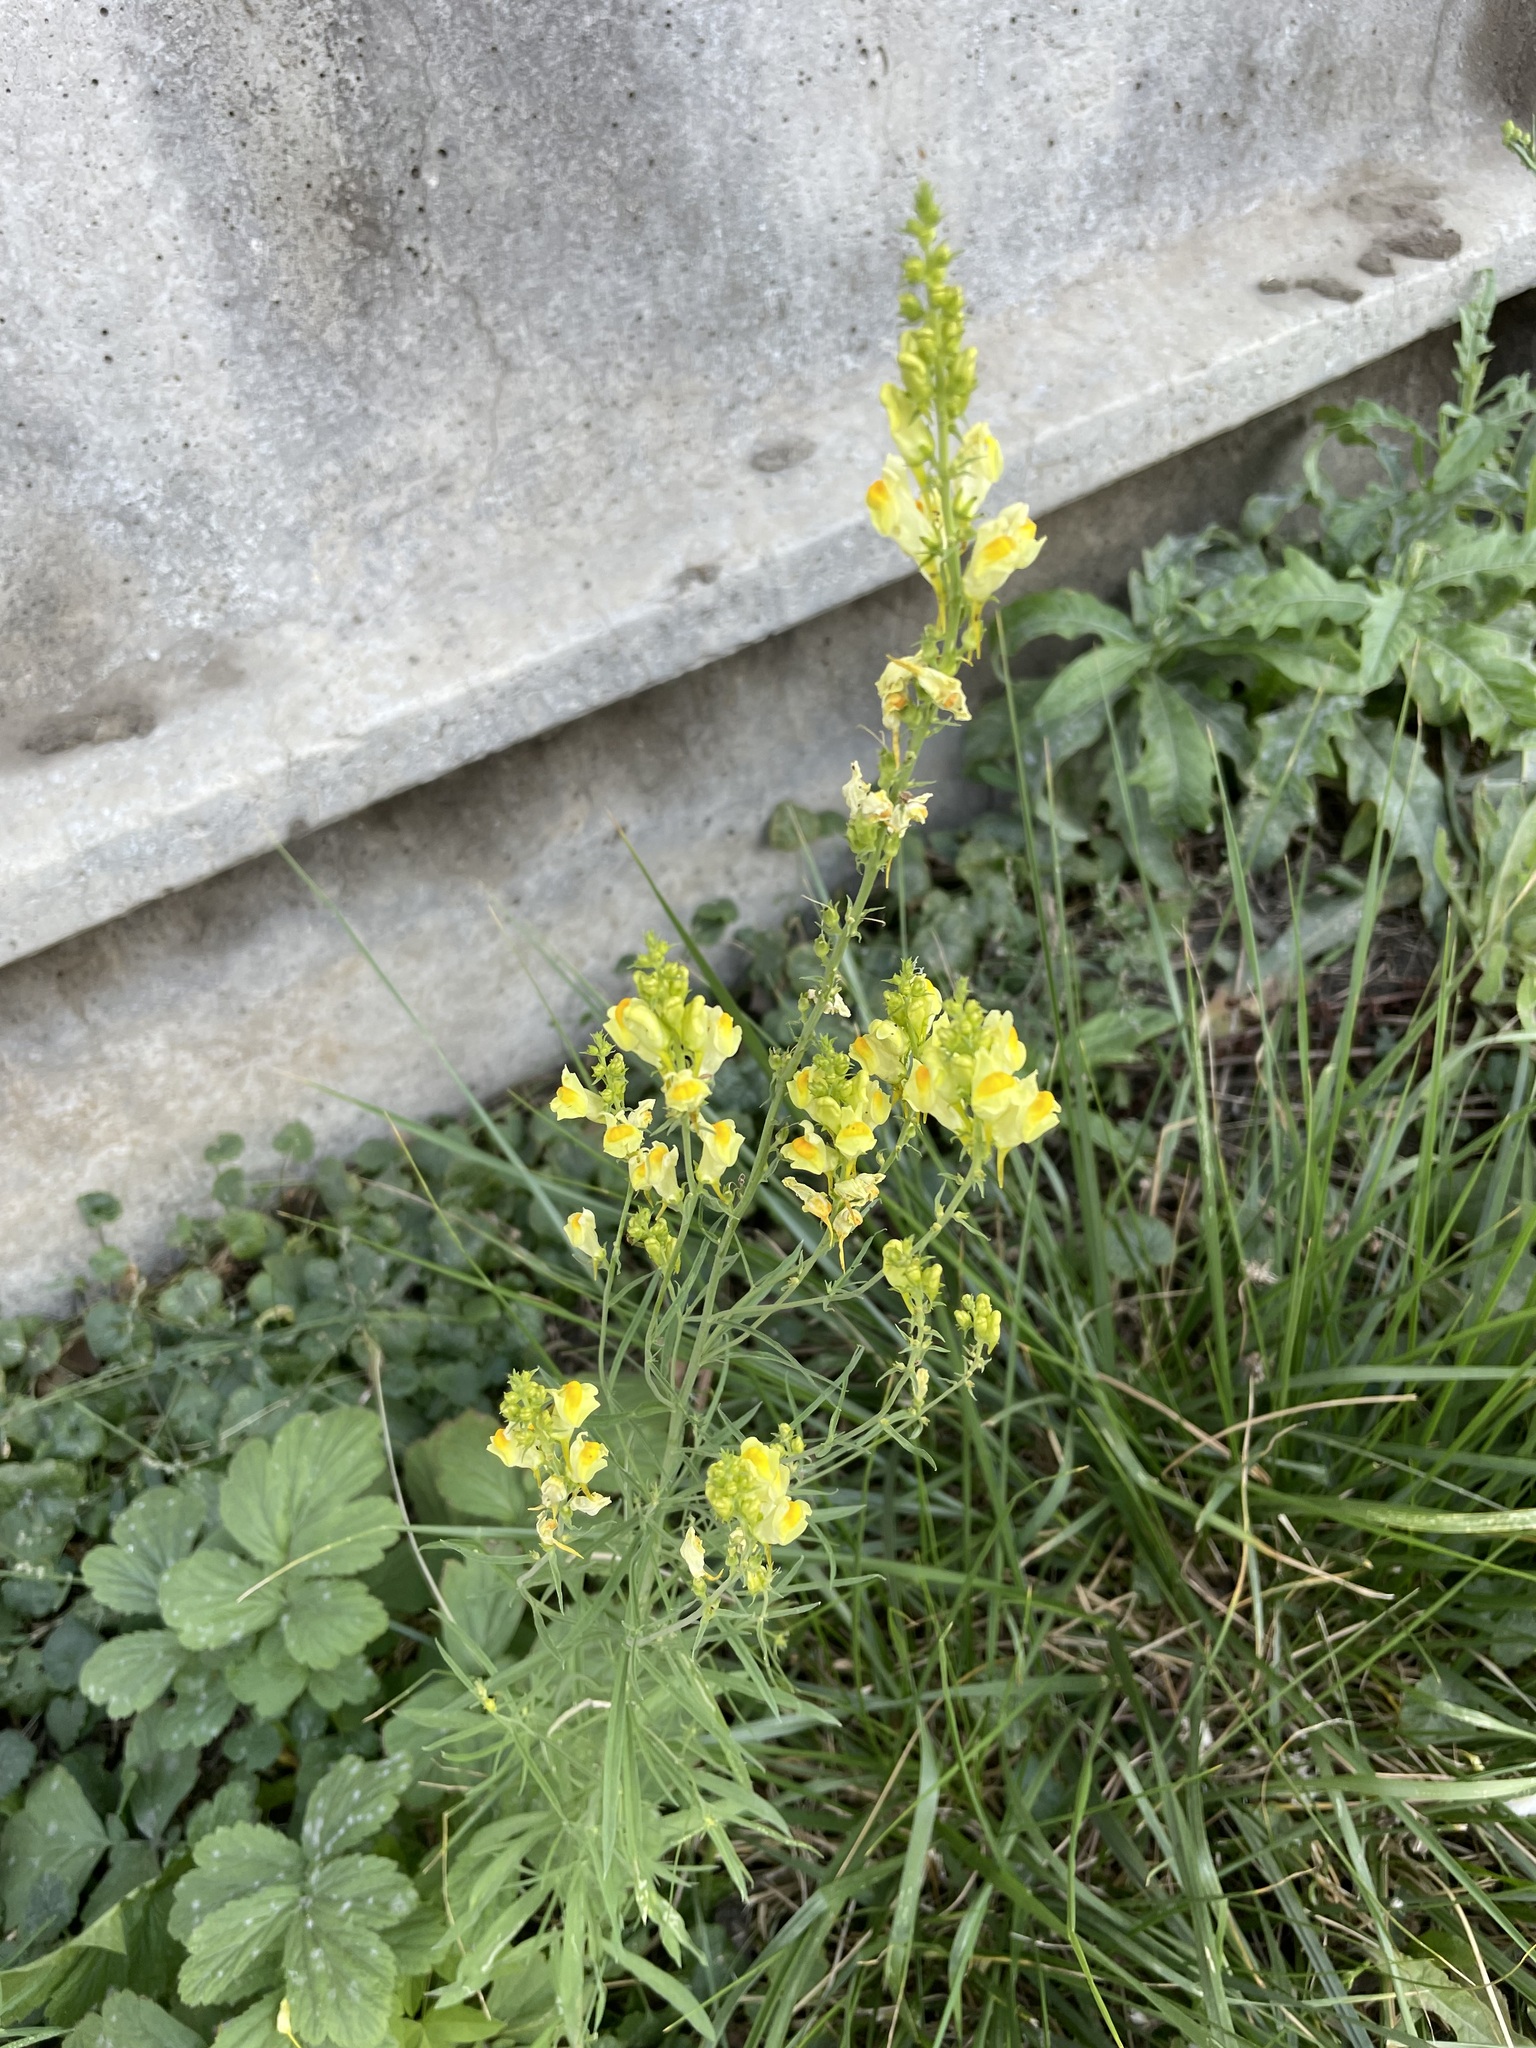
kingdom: Plantae
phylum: Tracheophyta
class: Magnoliopsida
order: Lamiales
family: Plantaginaceae
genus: Linaria
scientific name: Linaria vulgaris
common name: Butter and eggs
